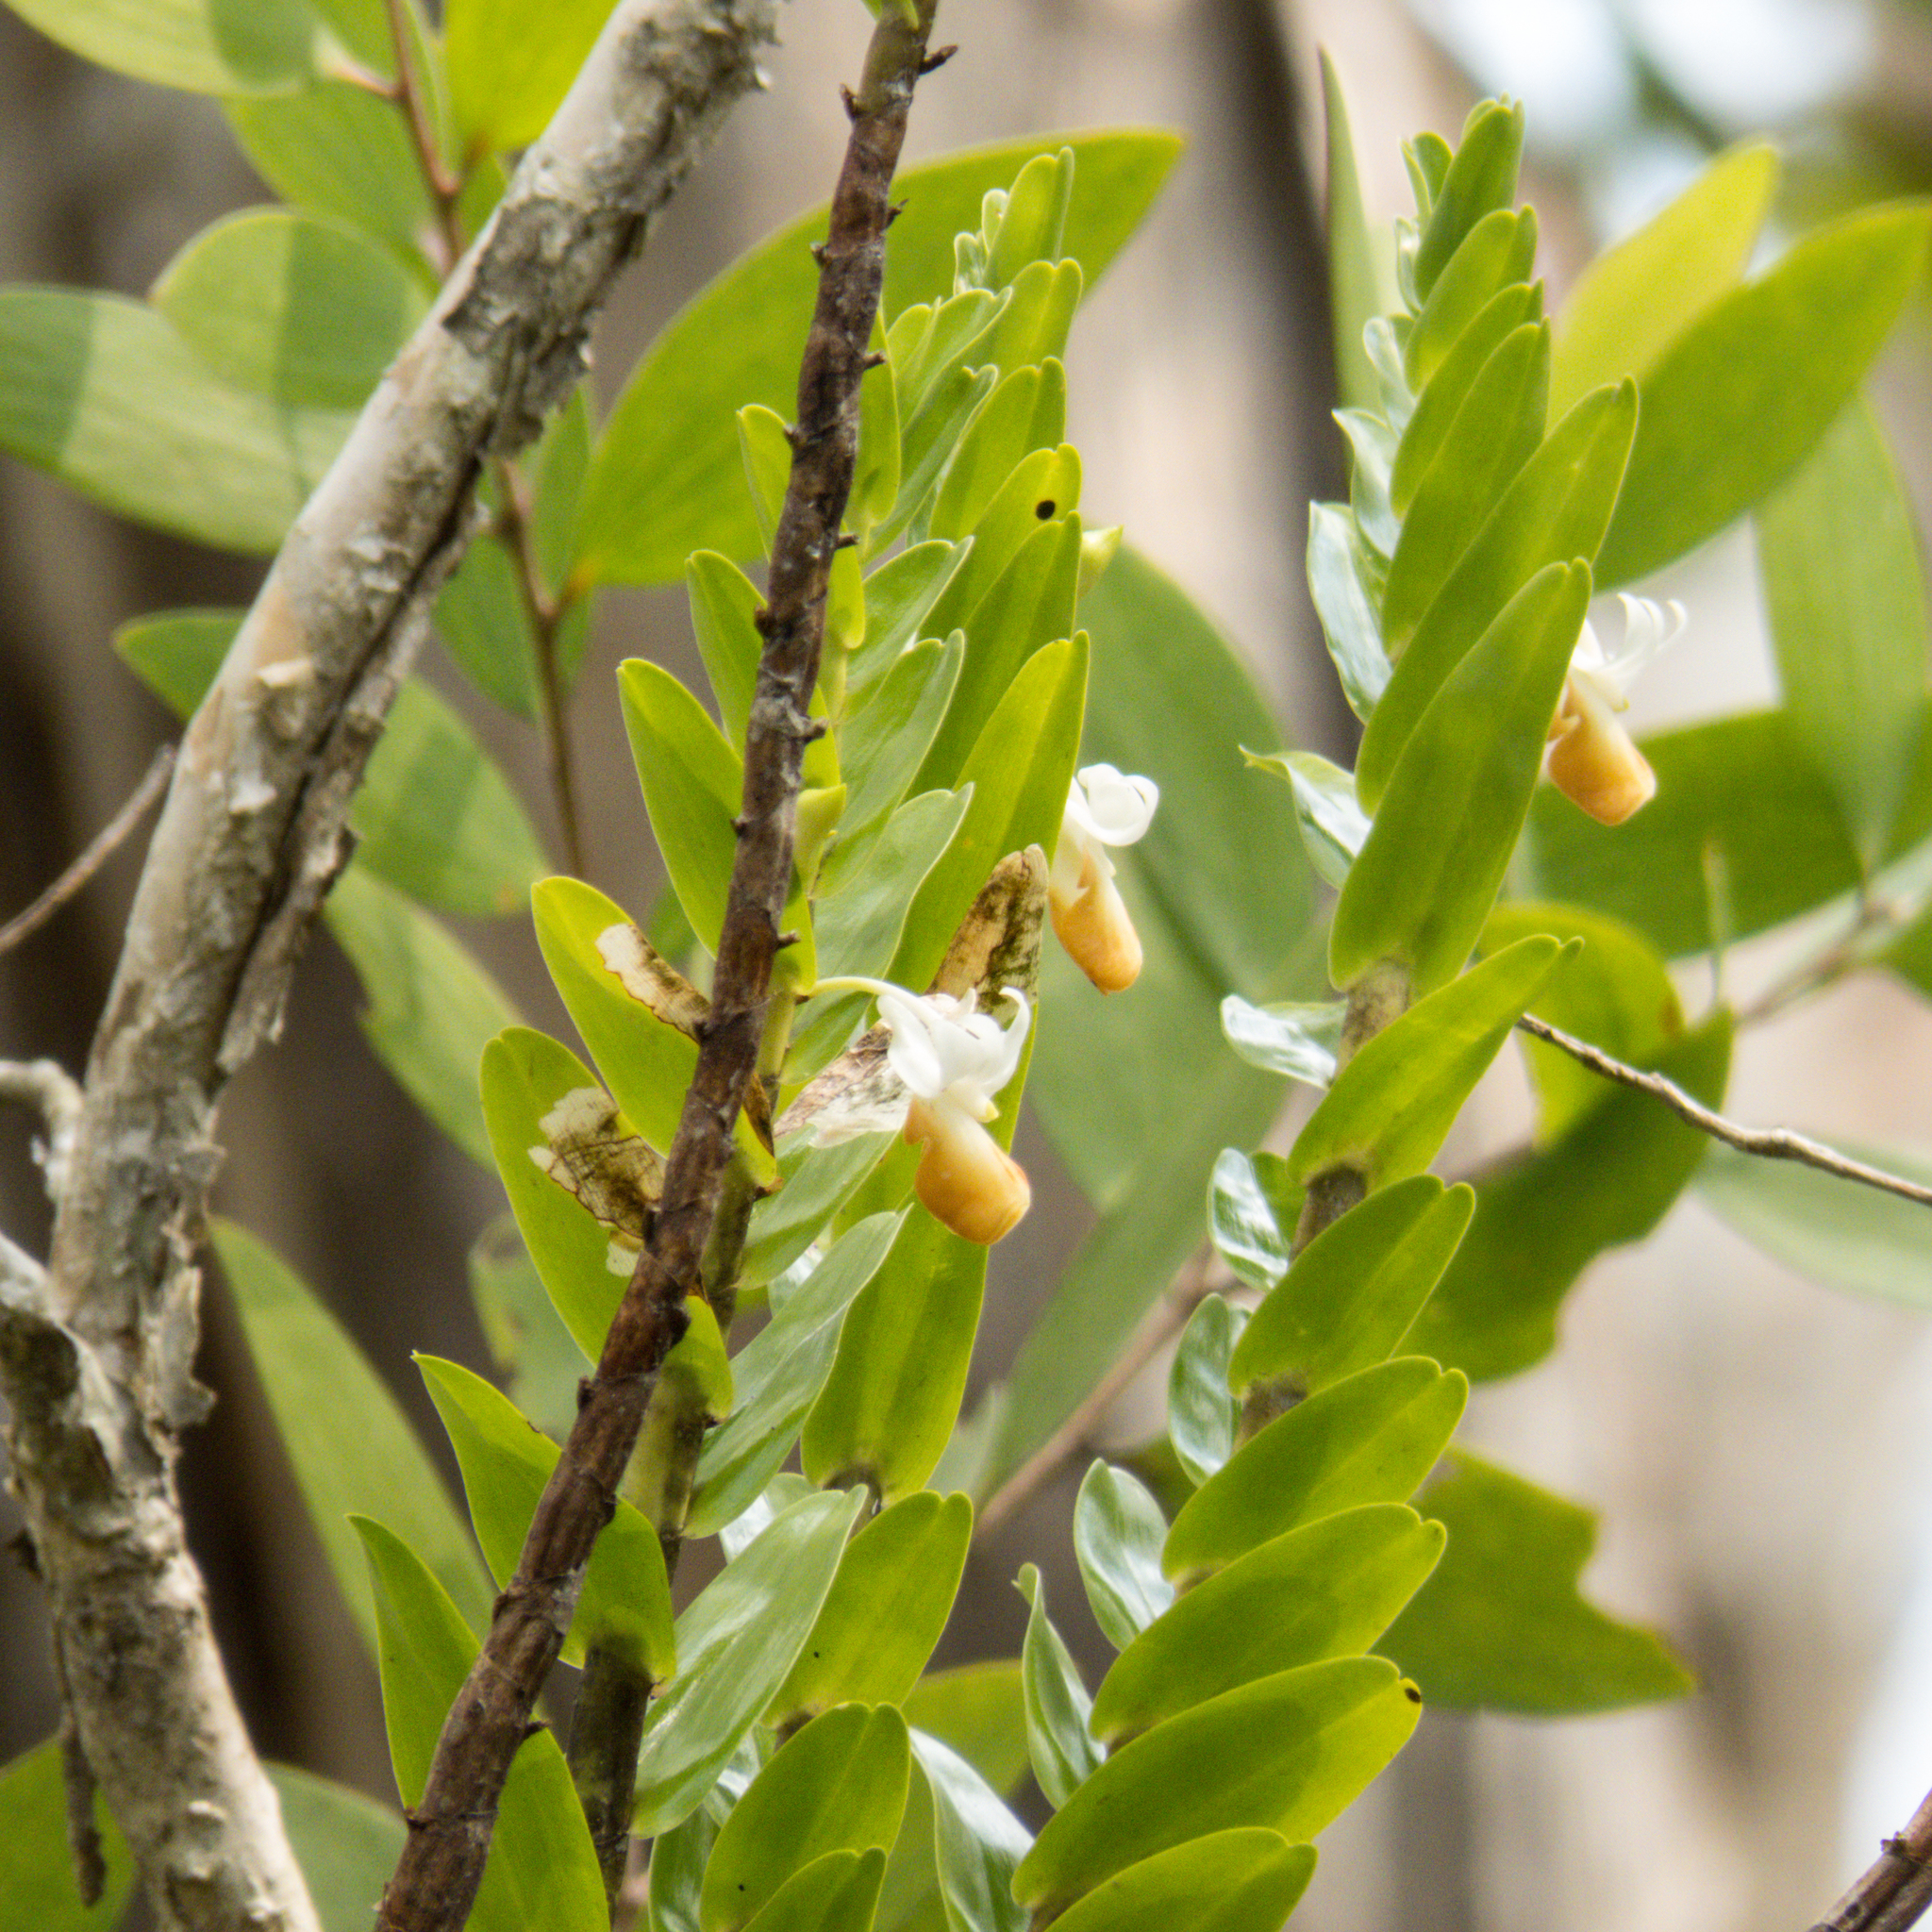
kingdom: Plantae
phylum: Tracheophyta
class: Liliopsida
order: Asparagales
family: Orchidaceae
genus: Dendrobium
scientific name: Dendrobium ellipsophyllum
